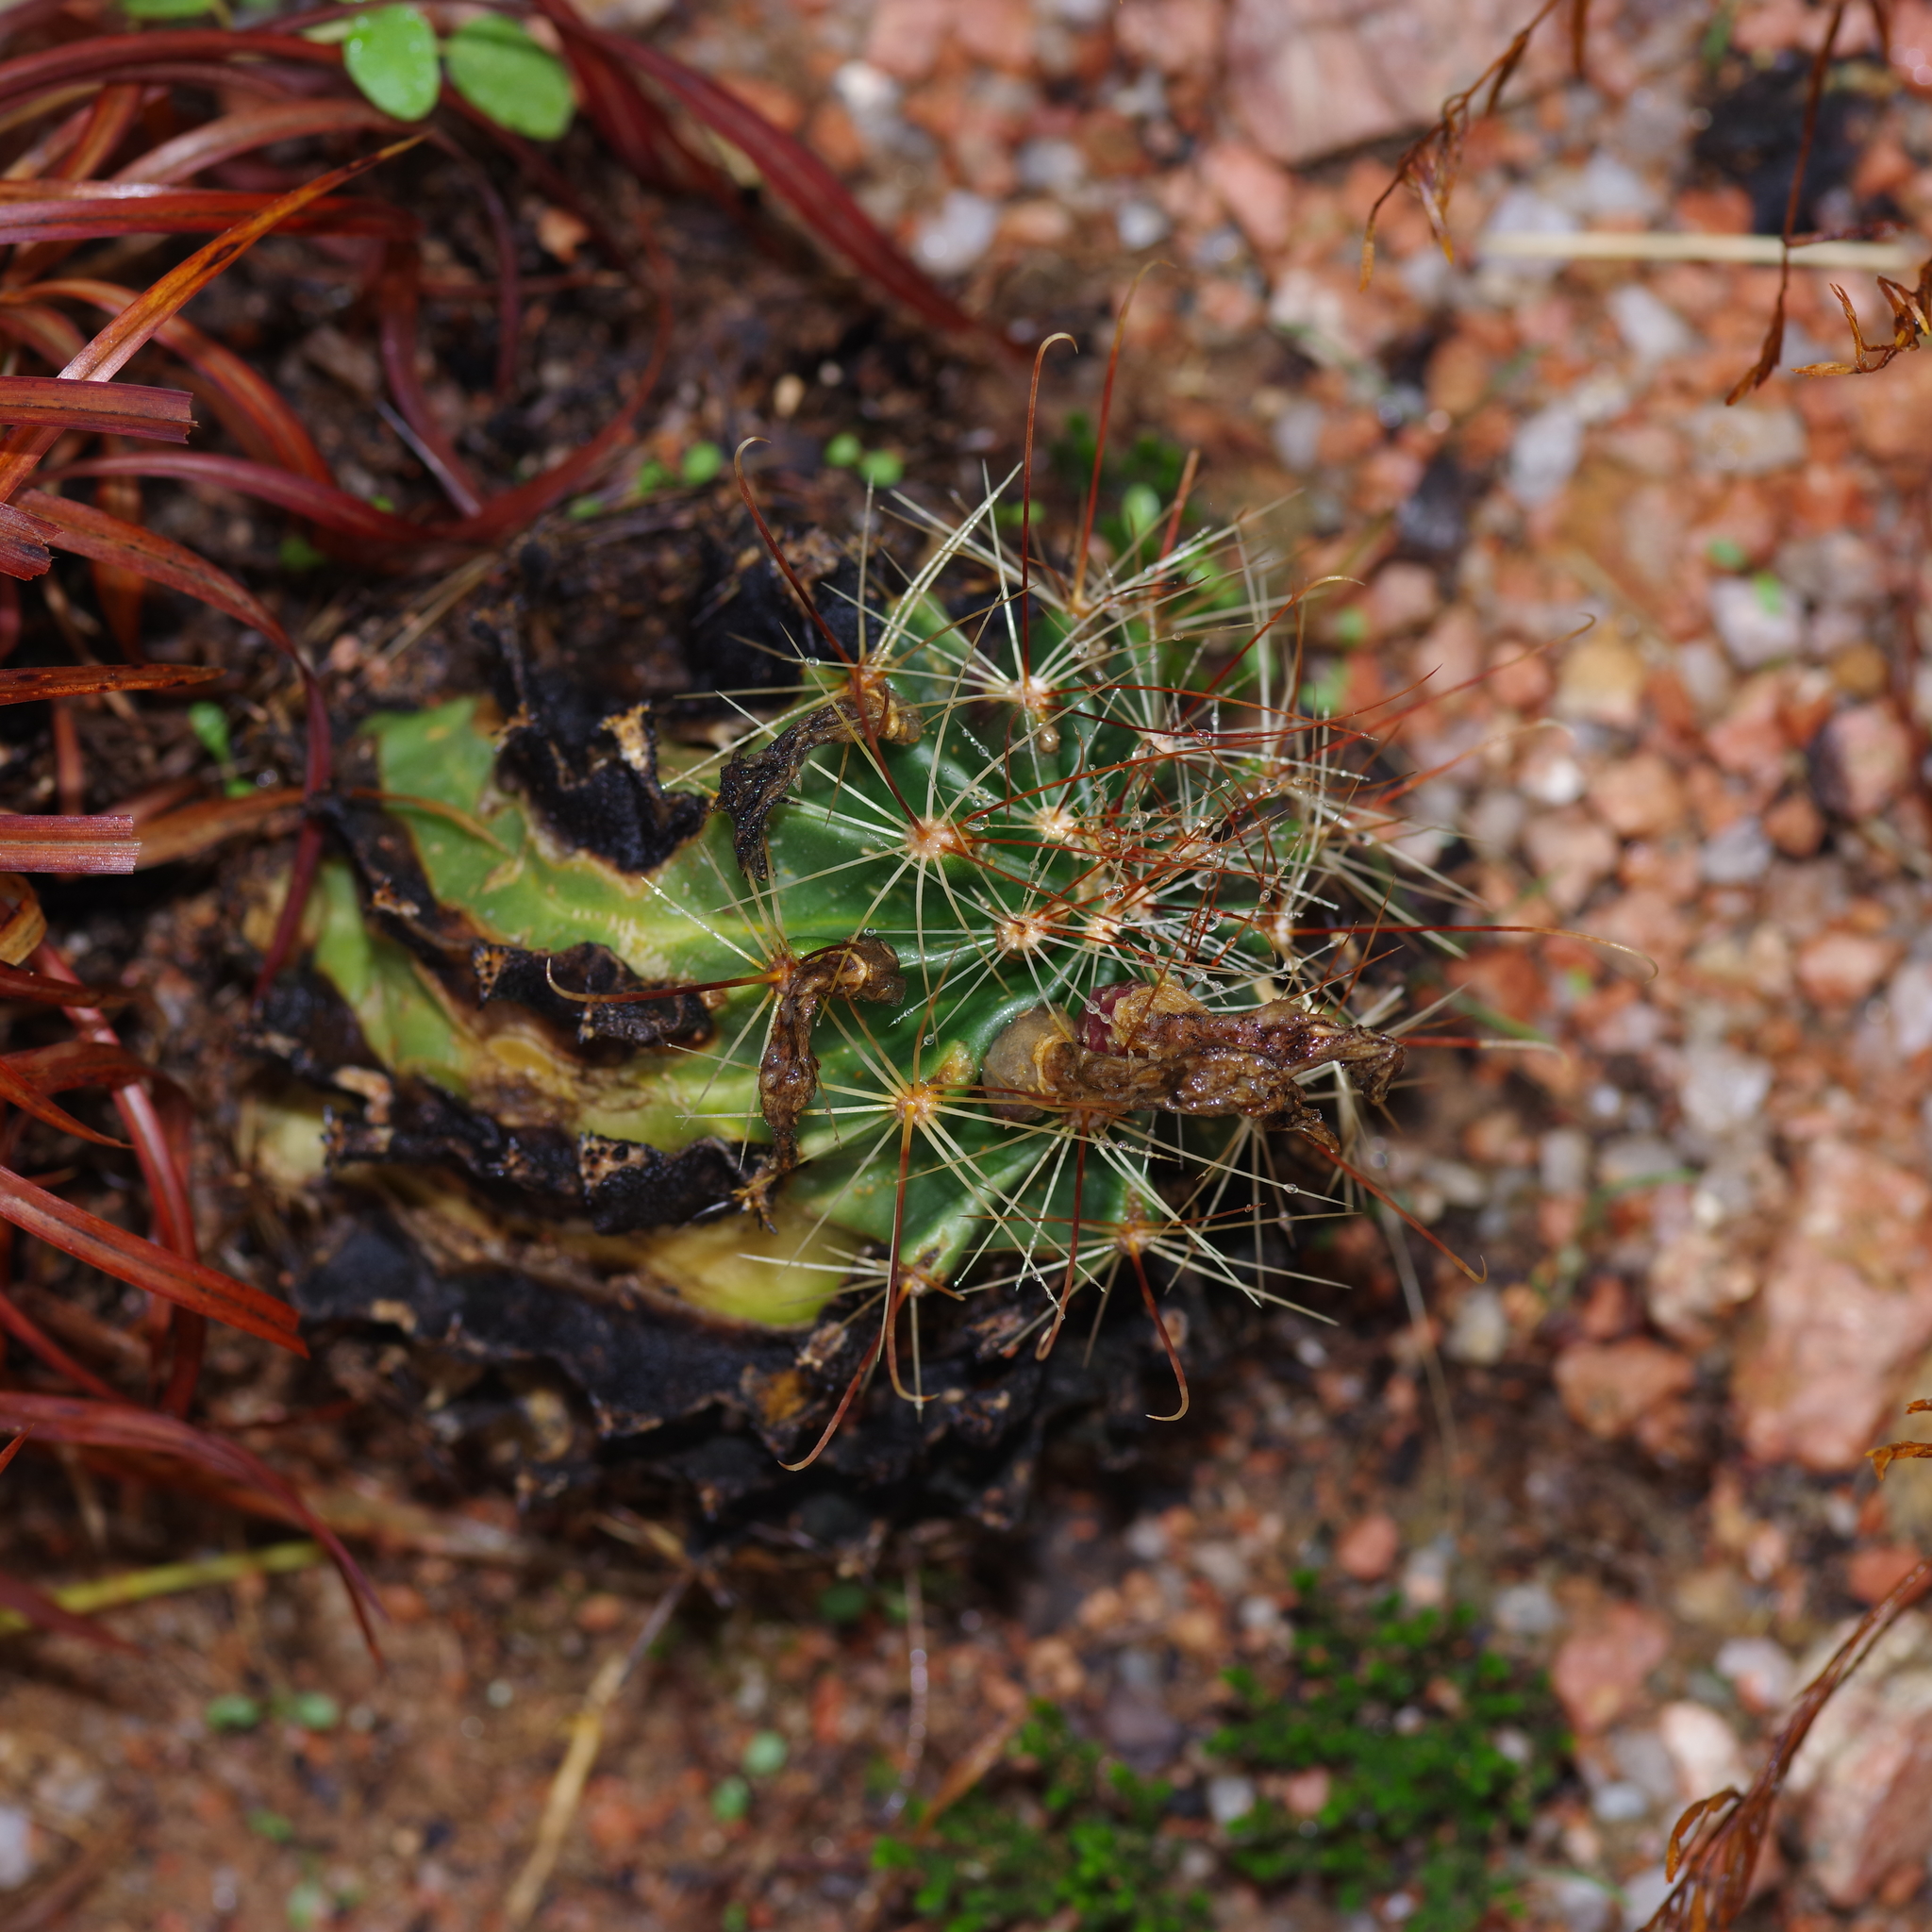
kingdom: Plantae
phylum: Tracheophyta
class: Magnoliopsida
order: Caryophyllales
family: Cactaceae
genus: Thelocactus
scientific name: Thelocactus setispinus
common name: Miniature barrel cactus
